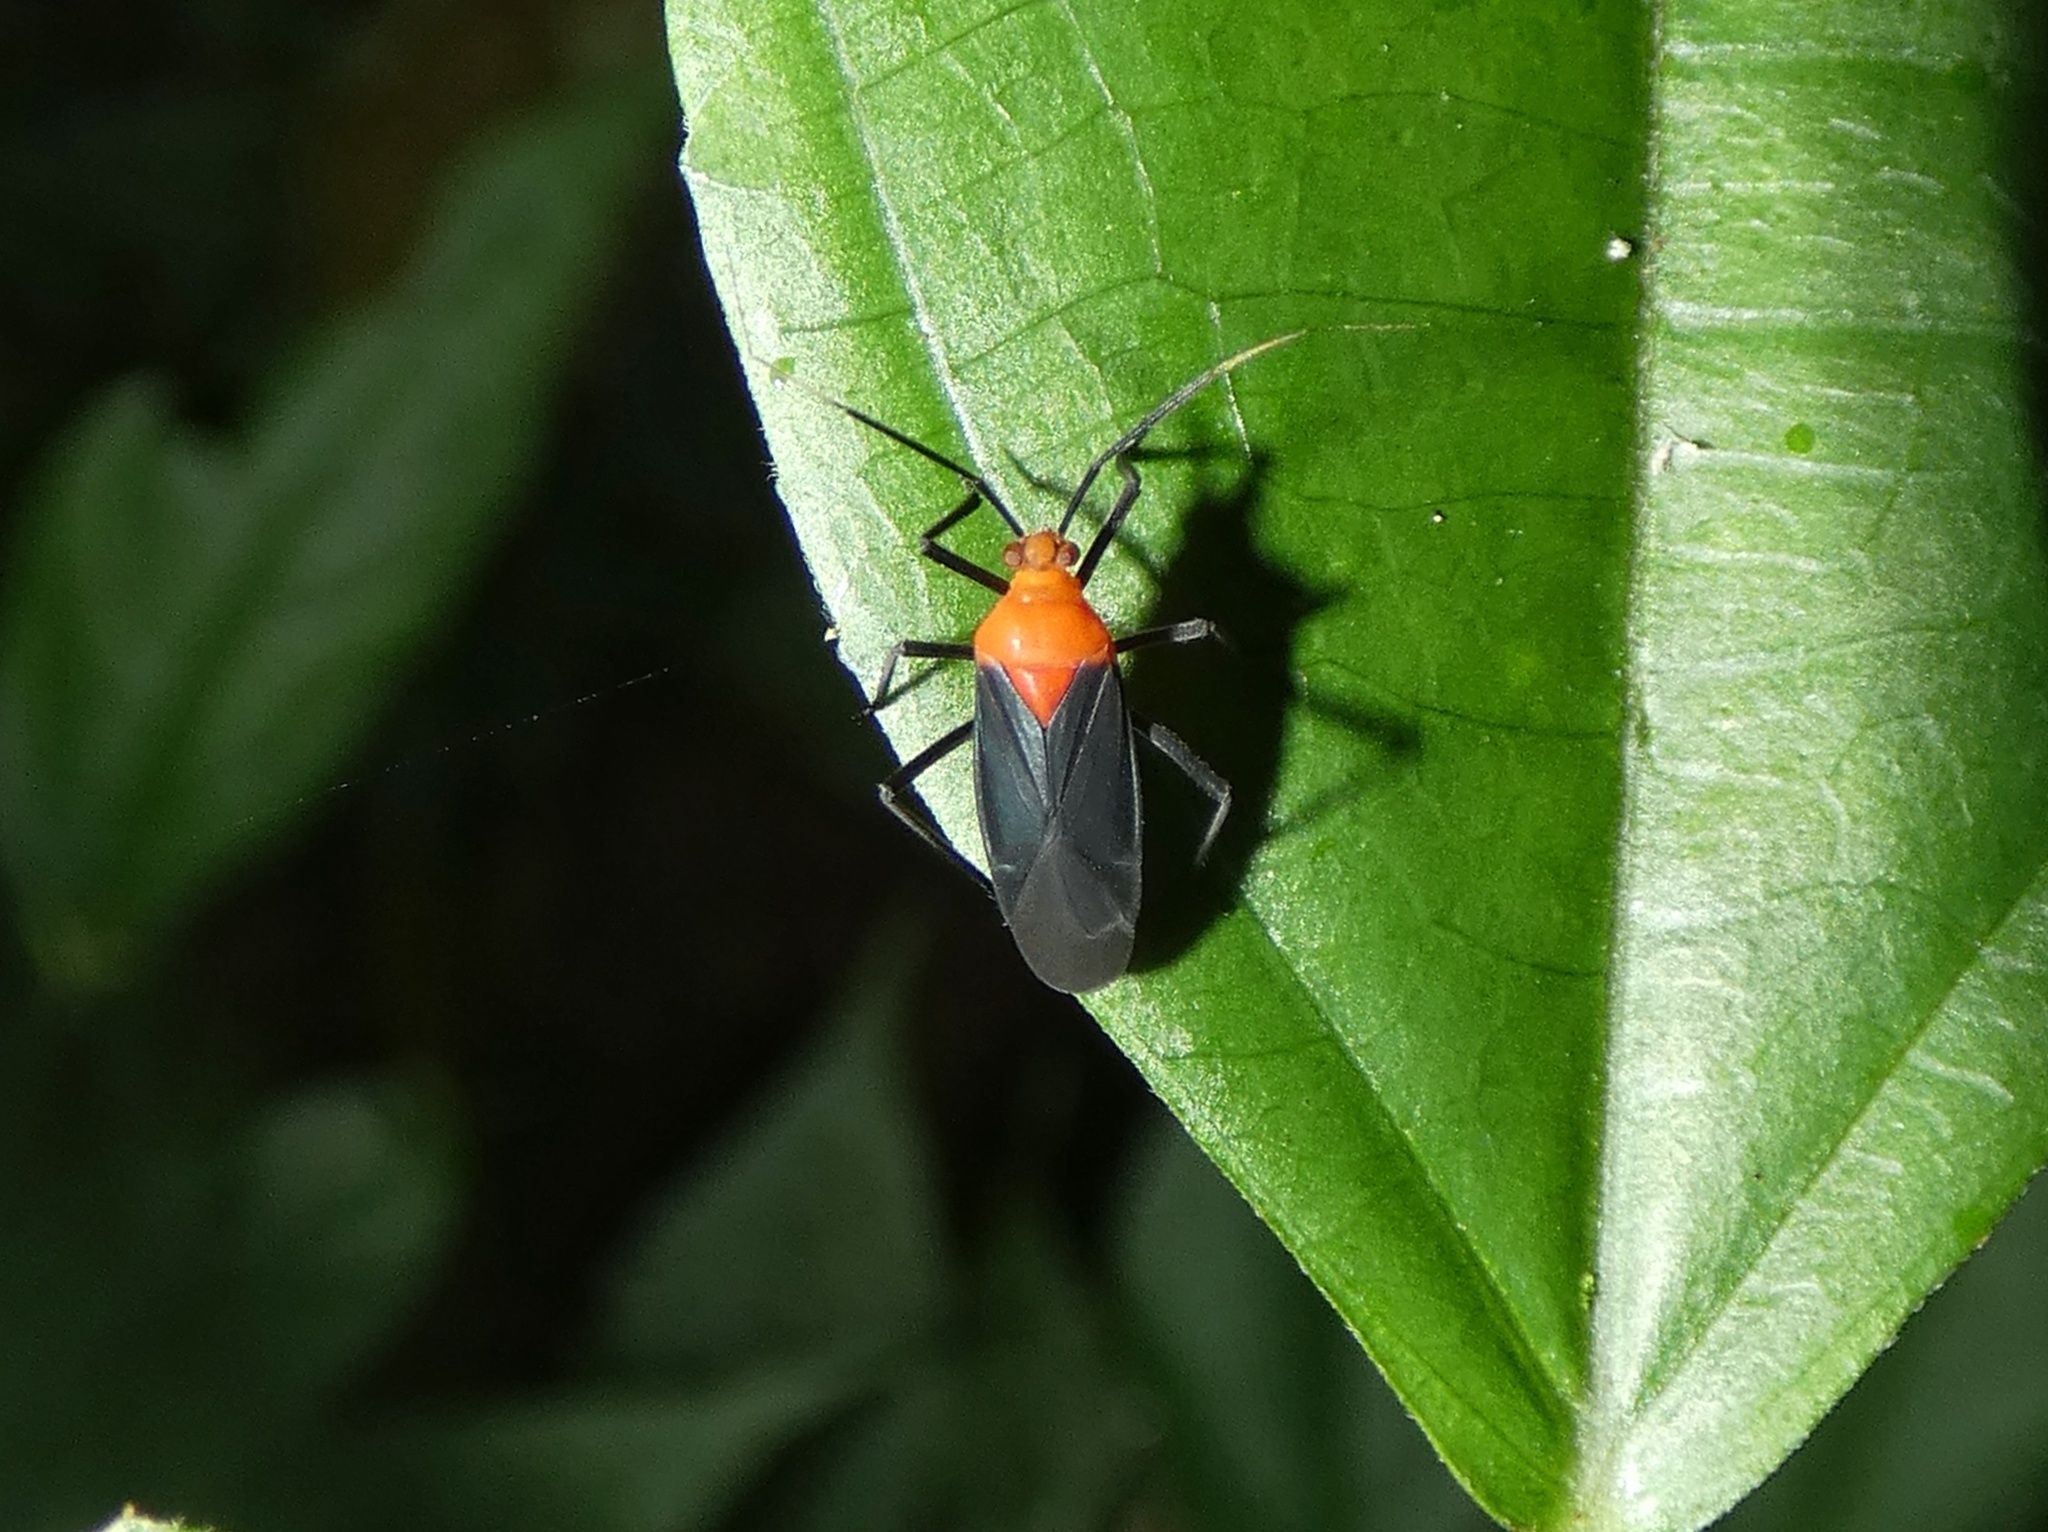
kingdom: Animalia
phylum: Arthropoda
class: Insecta
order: Hemiptera
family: Miridae
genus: Prepops
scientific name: Prepops jamaicensis
